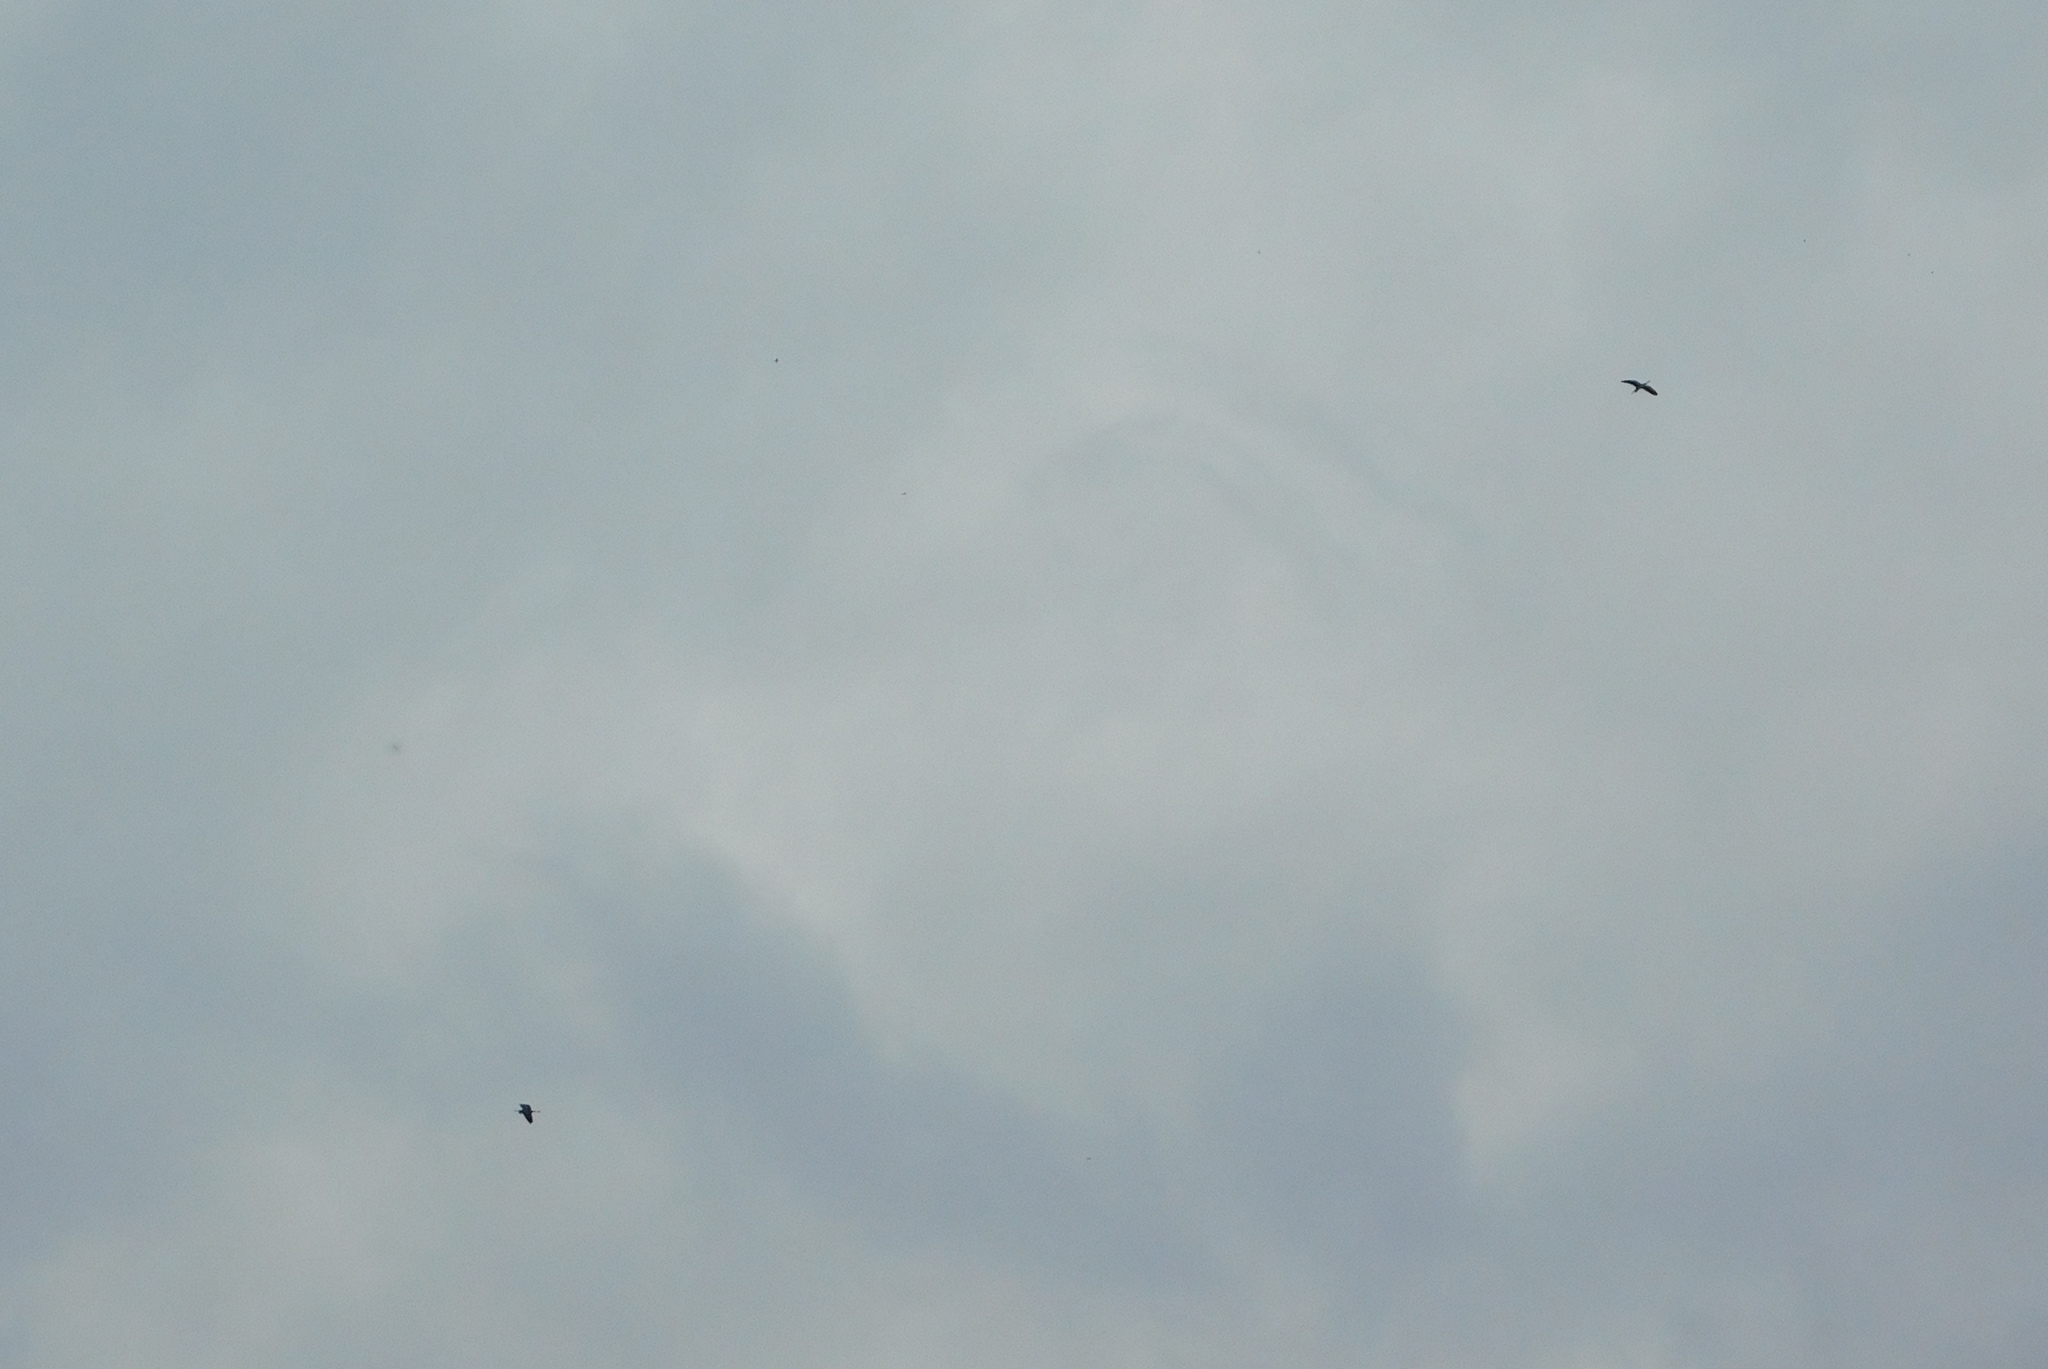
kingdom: Animalia
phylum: Chordata
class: Aves
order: Pelecaniformes
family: Ardeidae
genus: Ardea
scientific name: Ardea cinerea
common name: Grey heron
